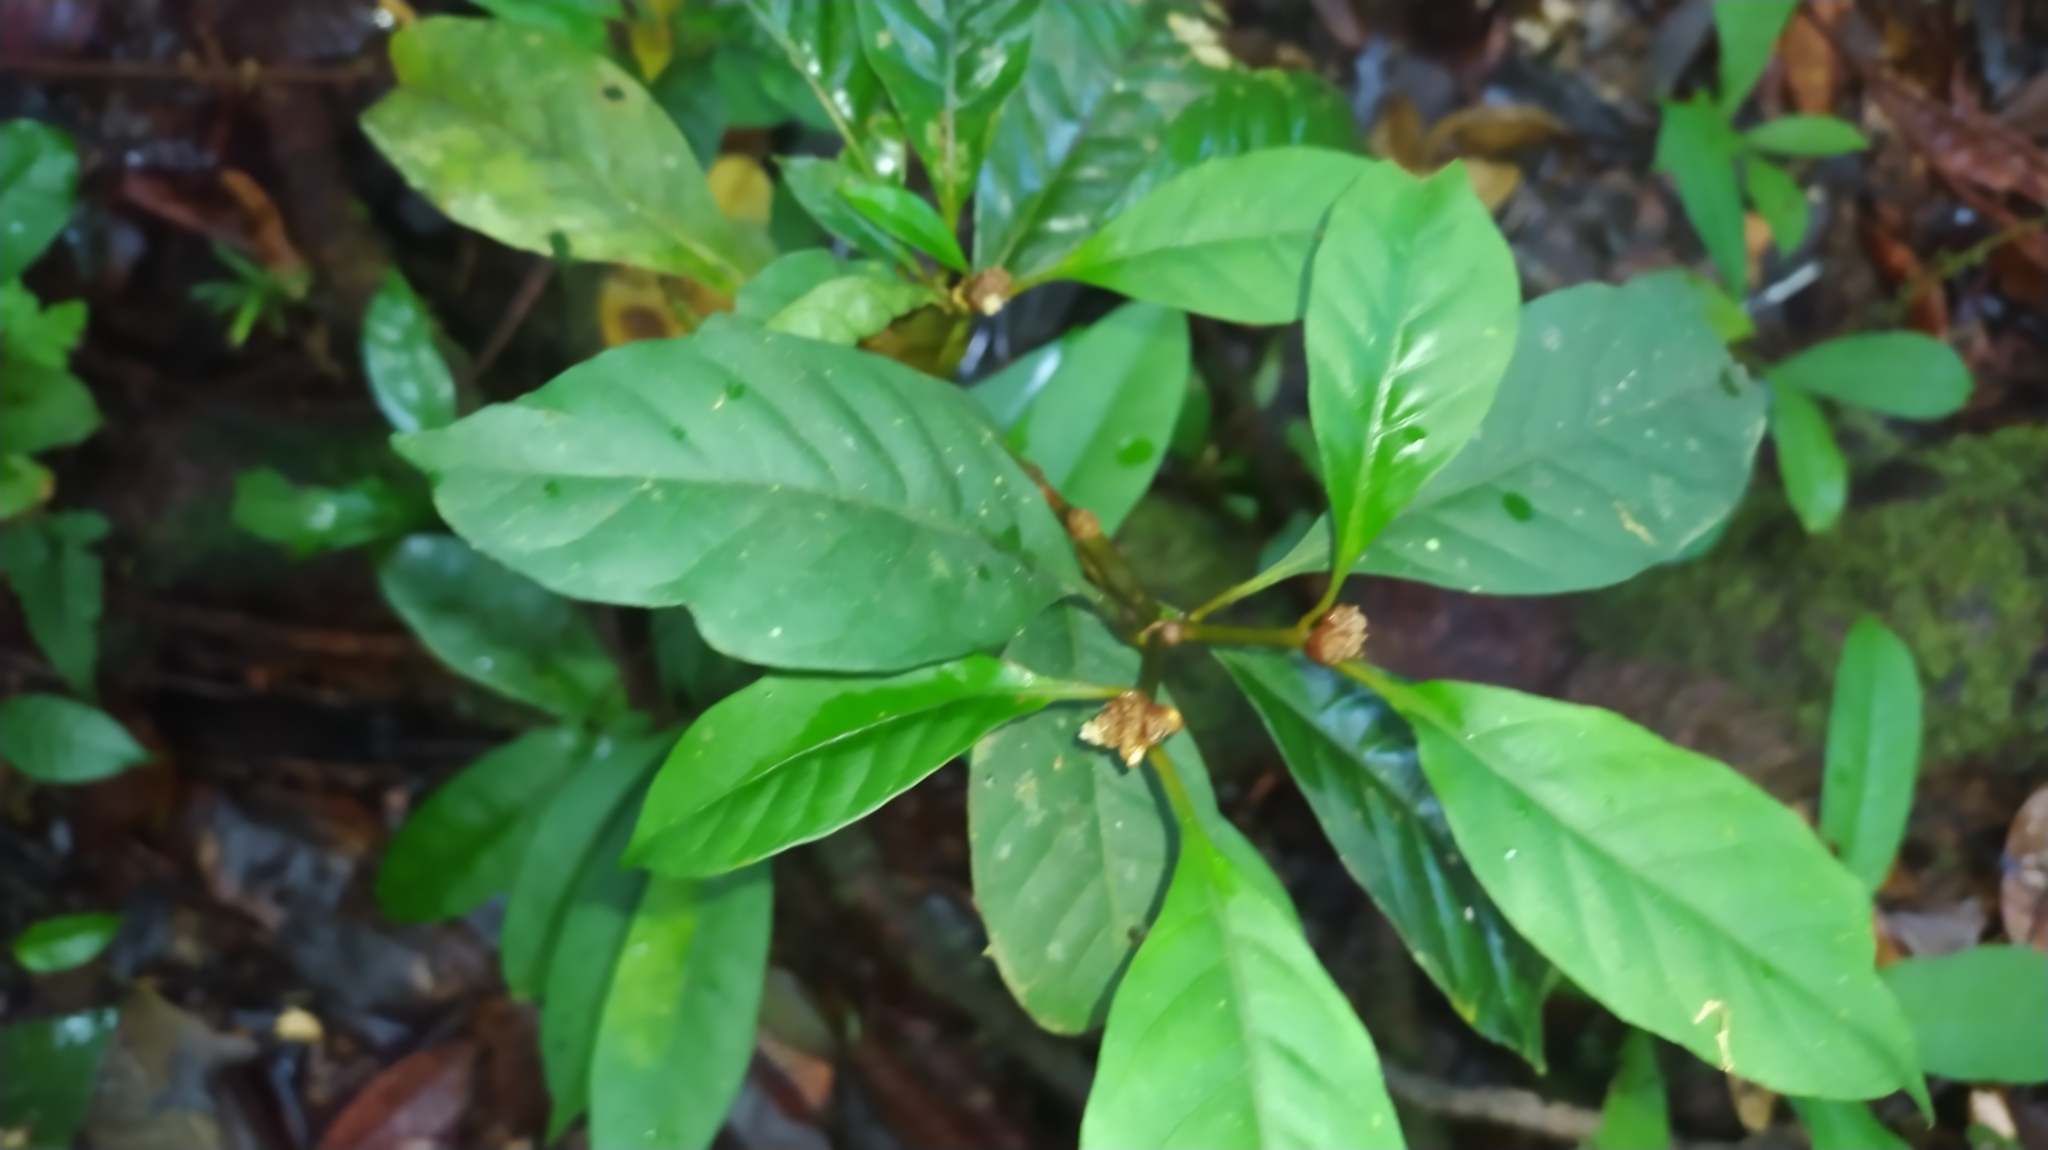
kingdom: Plantae
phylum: Tracheophyta
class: Magnoliopsida
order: Gentianales
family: Rubiaceae
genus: Eumachia
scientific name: Eumachia kappleri
